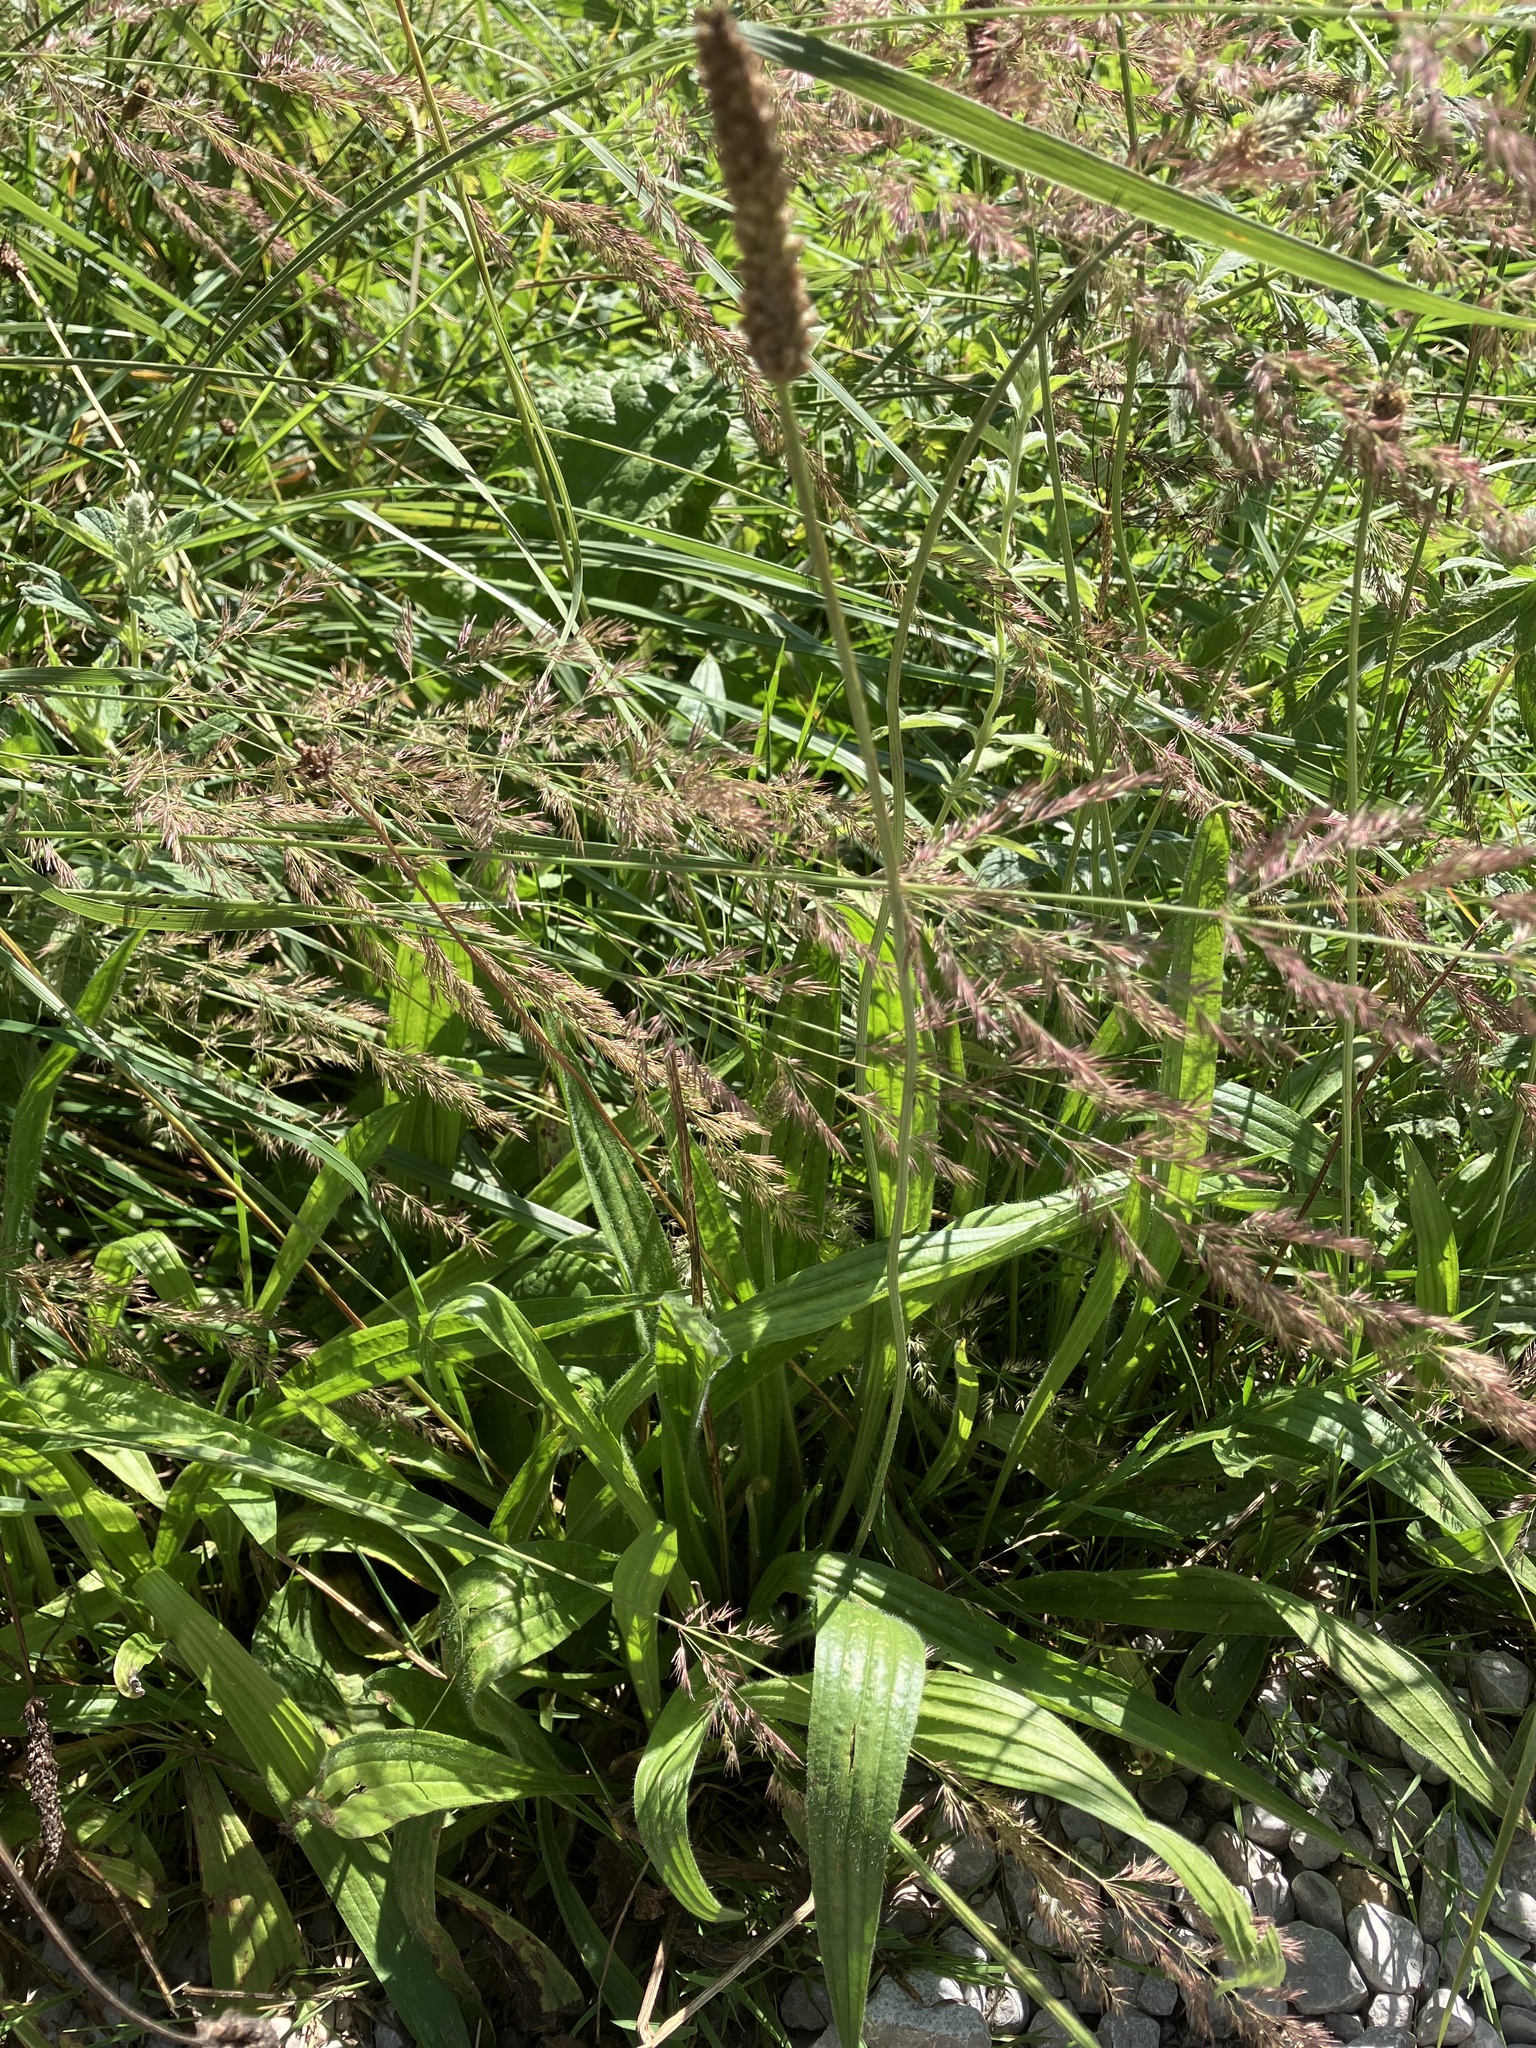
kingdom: Plantae
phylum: Tracheophyta
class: Magnoliopsida
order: Lamiales
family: Plantaginaceae
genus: Plantago
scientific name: Plantago lanceolata
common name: Ribwort plantain
